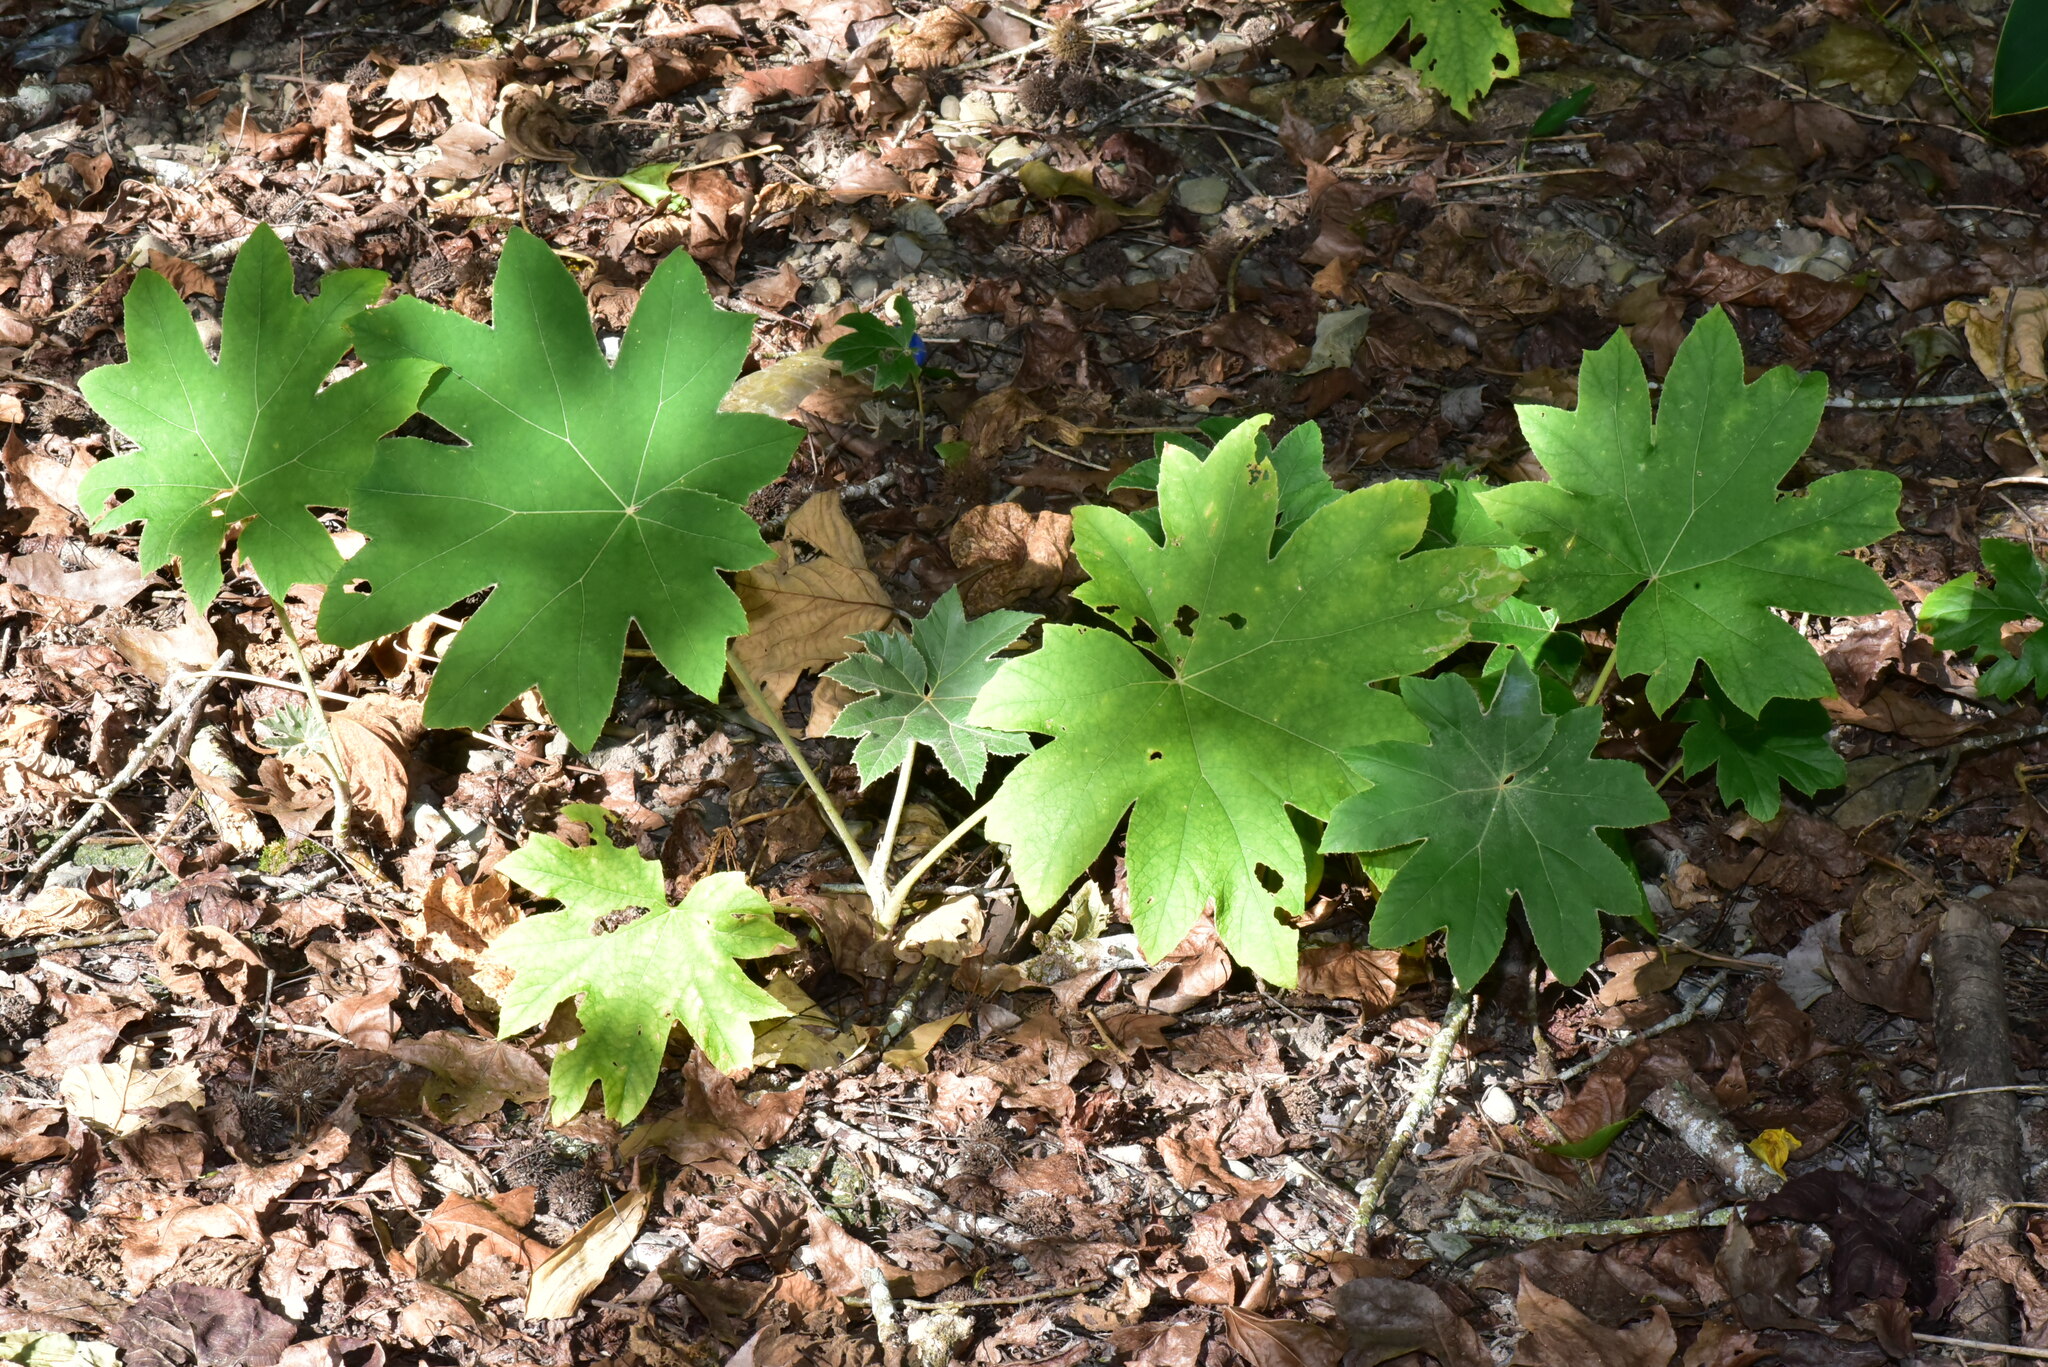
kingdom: Plantae
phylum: Tracheophyta
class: Magnoliopsida
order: Apiales
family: Araliaceae
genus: Tetrapanax
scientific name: Tetrapanax papyrifer
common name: Rice-paper plant
